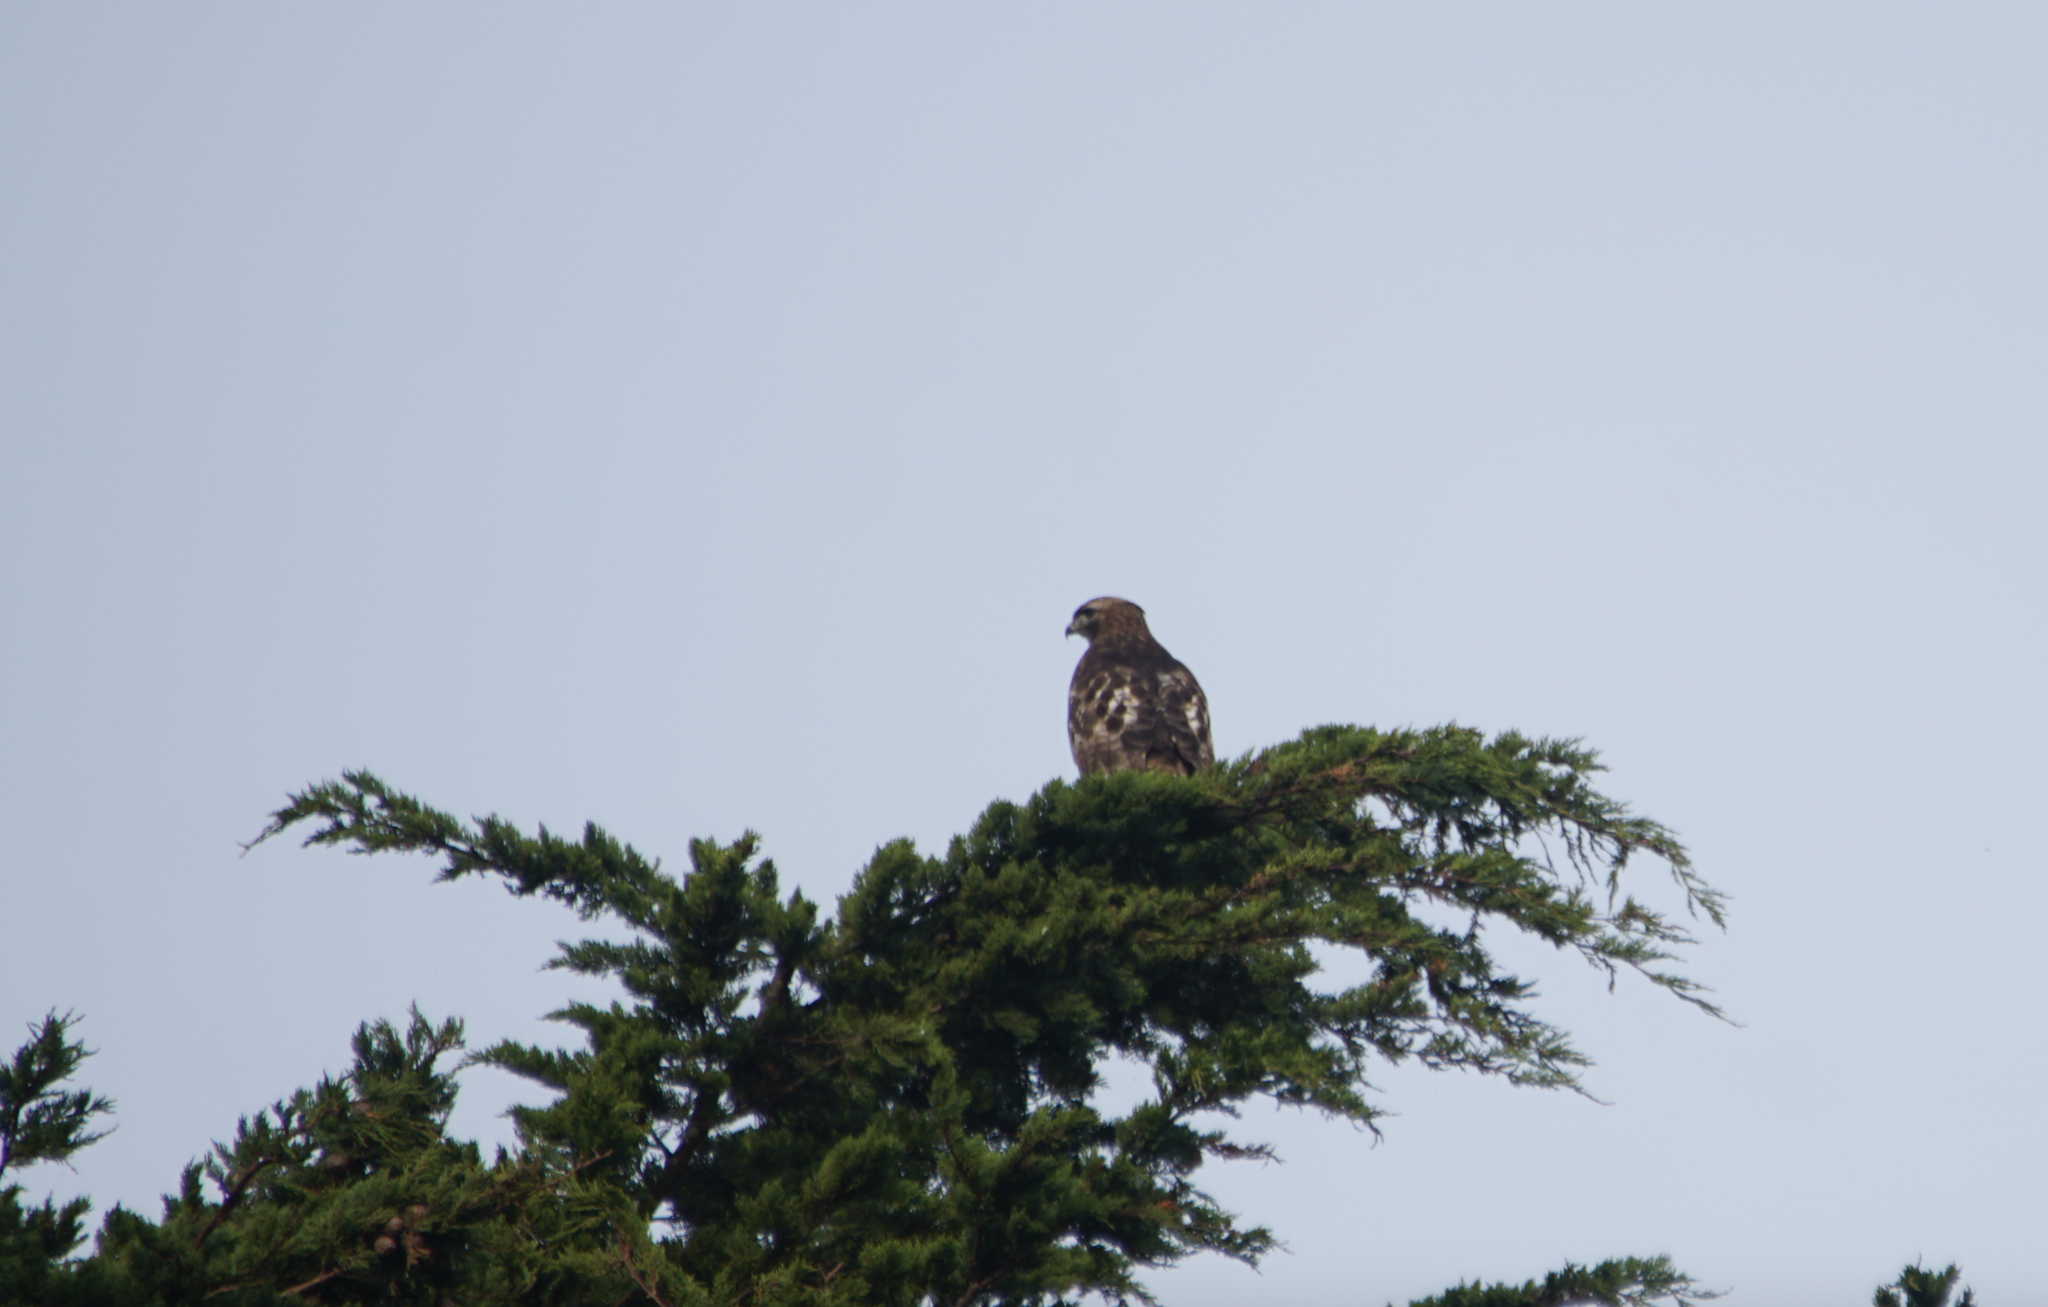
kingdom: Animalia
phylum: Chordata
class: Aves
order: Accipitriformes
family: Accipitridae
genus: Buteo
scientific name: Buteo jamaicensis
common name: Red-tailed hawk
